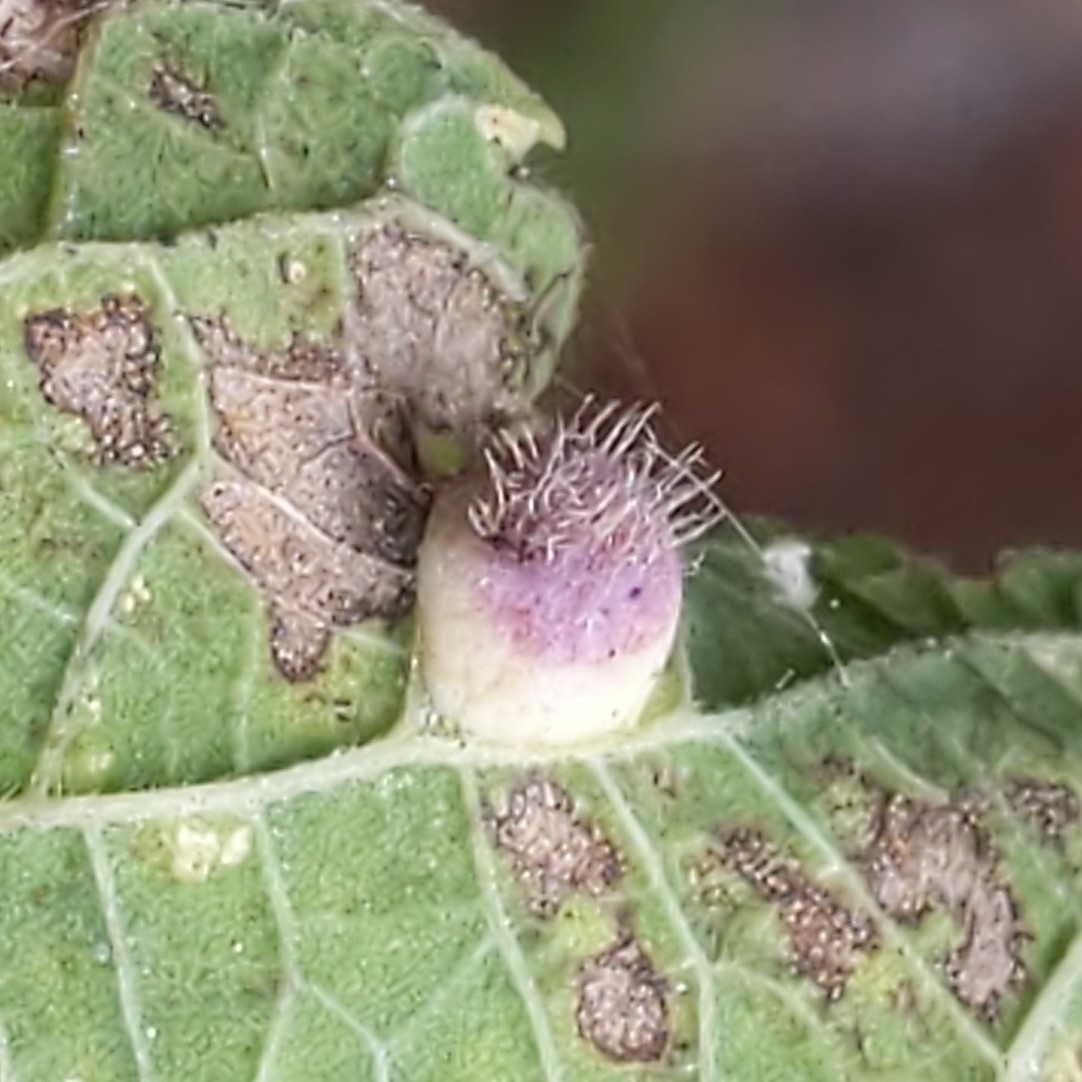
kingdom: Animalia
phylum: Arthropoda
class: Insecta
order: Hemiptera
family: Aphalaridae
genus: Pachypsylla
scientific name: Pachypsylla celtidismamma
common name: Hackberry nipplegall psyllid
